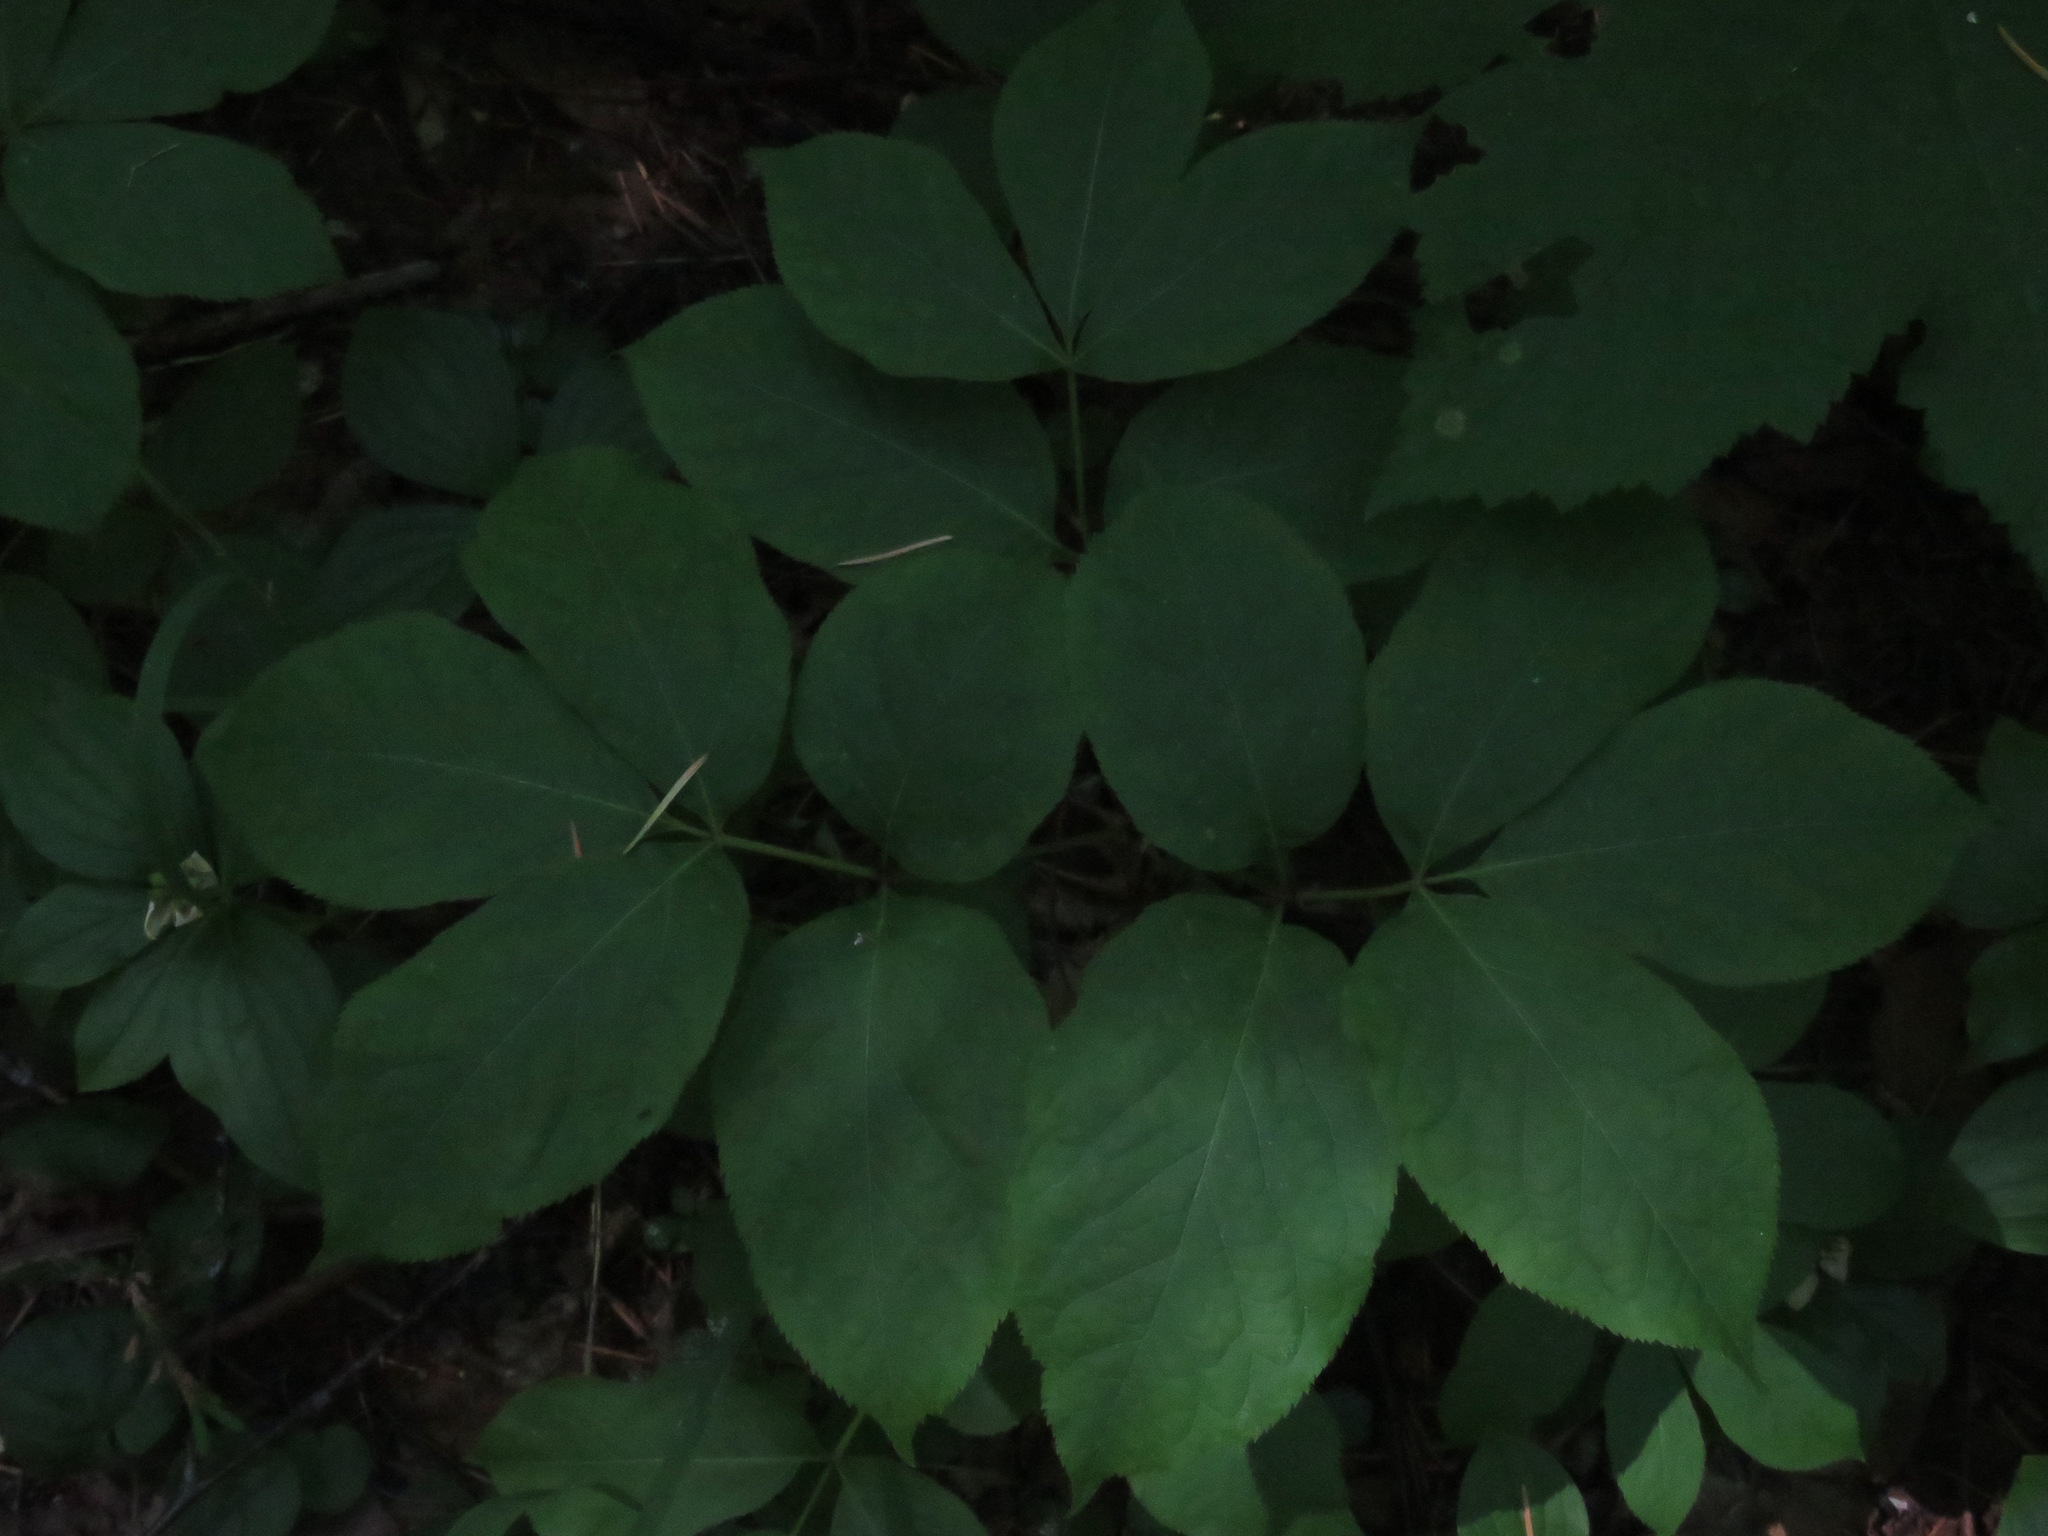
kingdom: Plantae
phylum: Tracheophyta
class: Magnoliopsida
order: Apiales
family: Araliaceae
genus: Aralia
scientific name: Aralia nudicaulis
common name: Wild sarsaparilla
